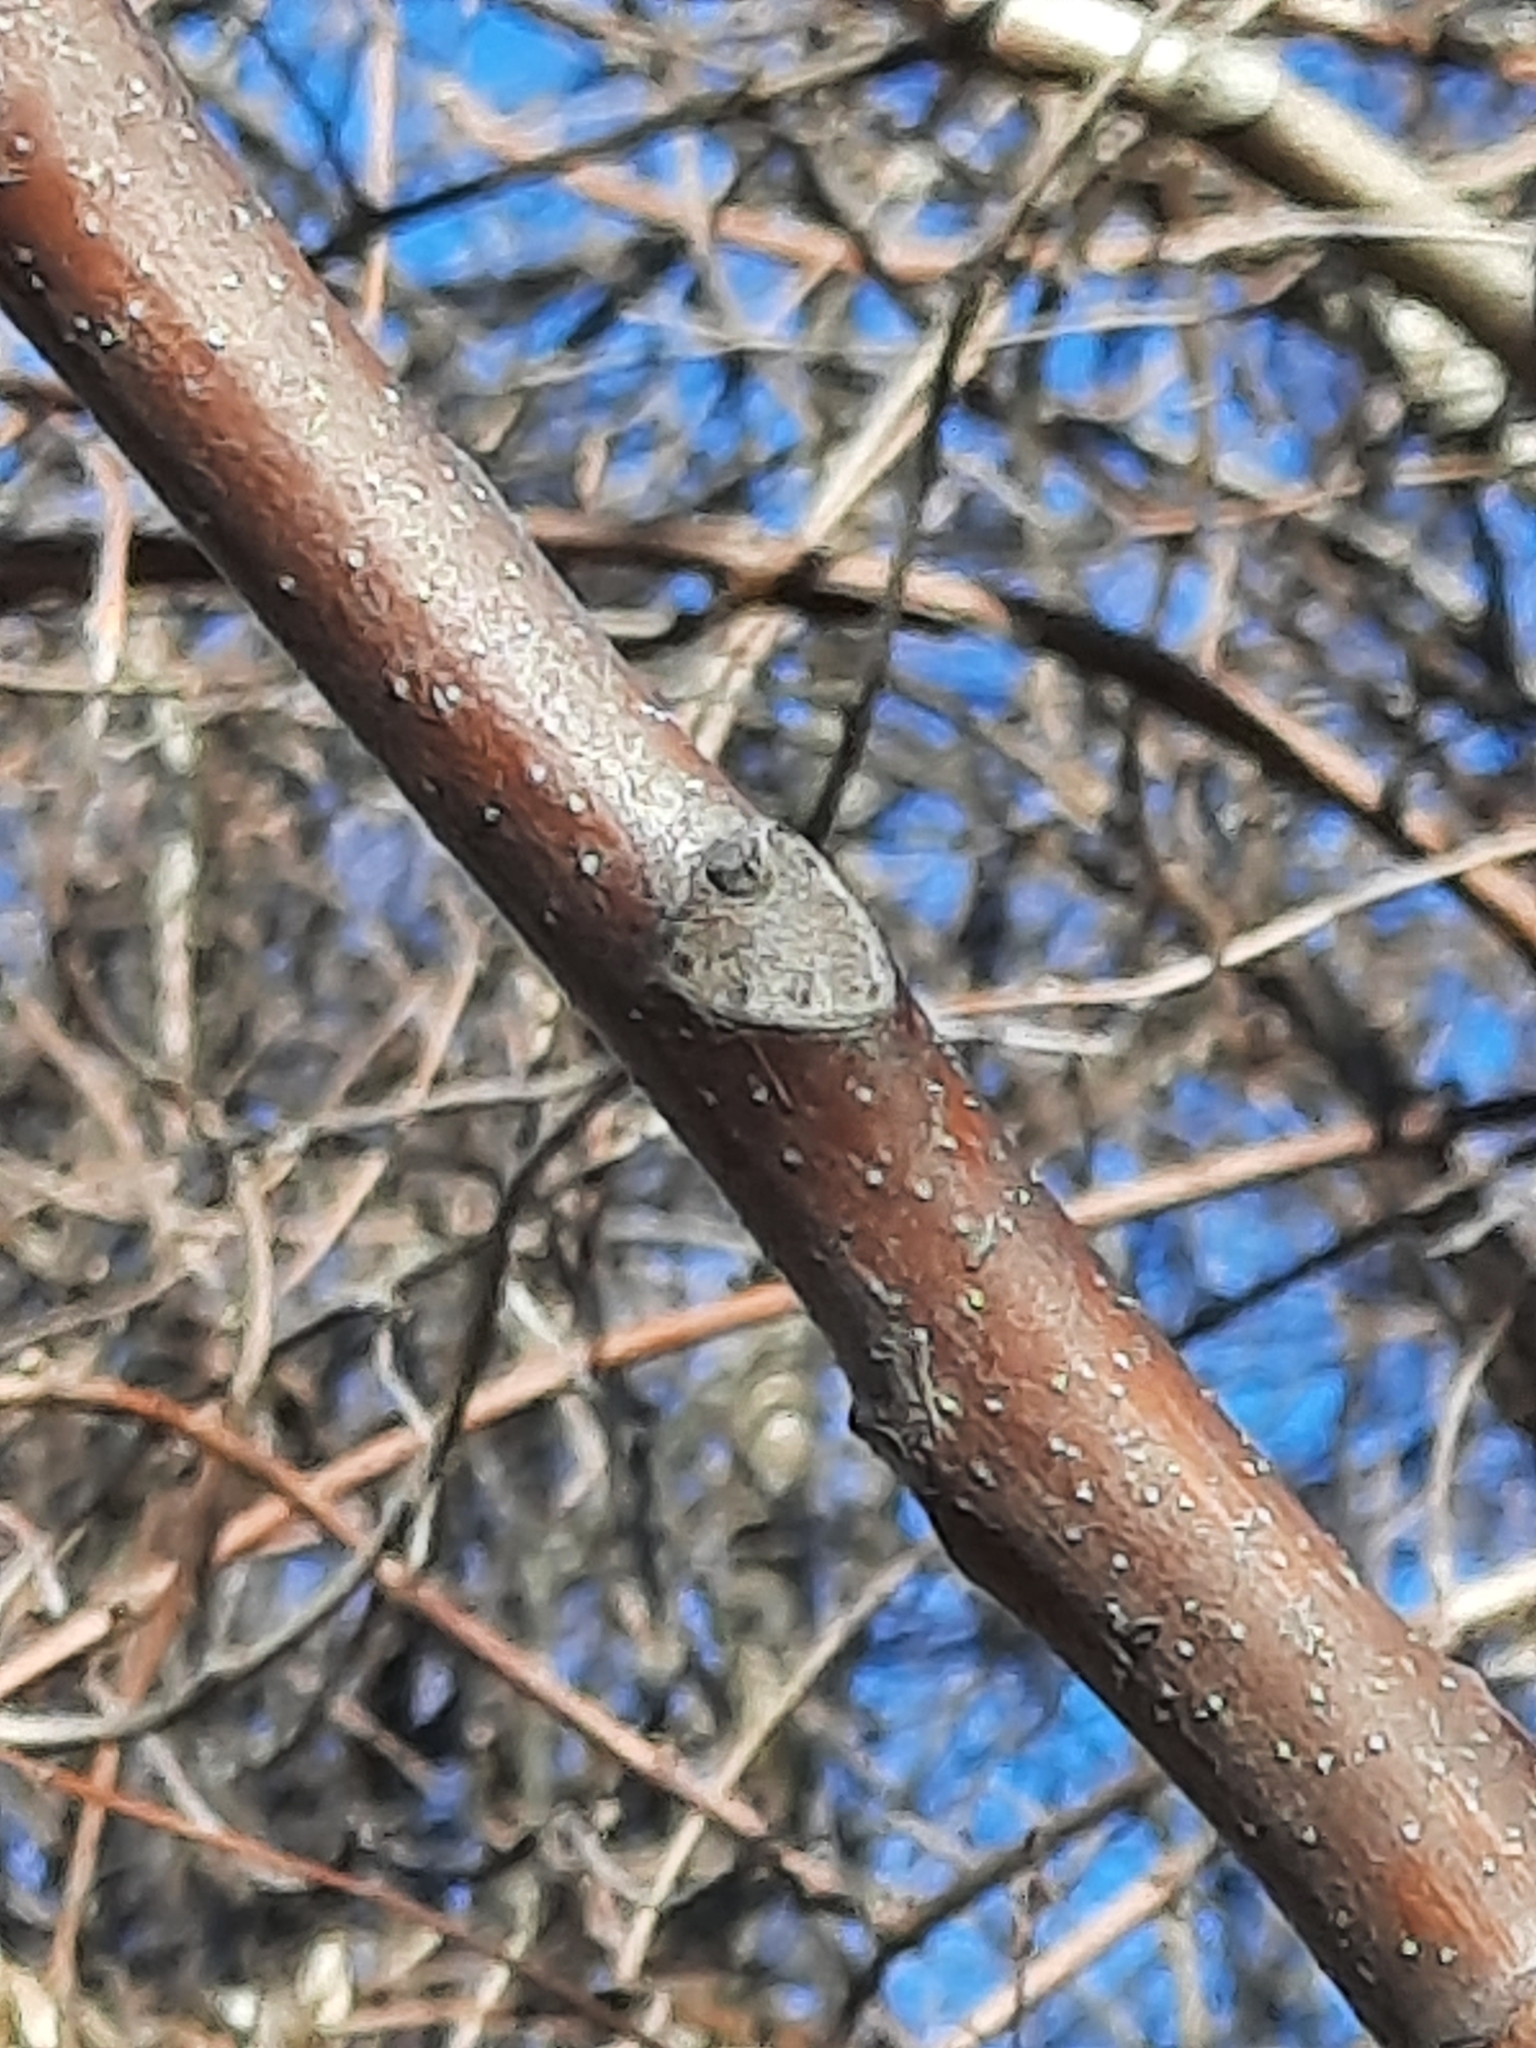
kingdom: Plantae
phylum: Tracheophyta
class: Magnoliopsida
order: Sapindales
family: Simaroubaceae
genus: Ailanthus
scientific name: Ailanthus altissima
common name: Tree-of-heaven
